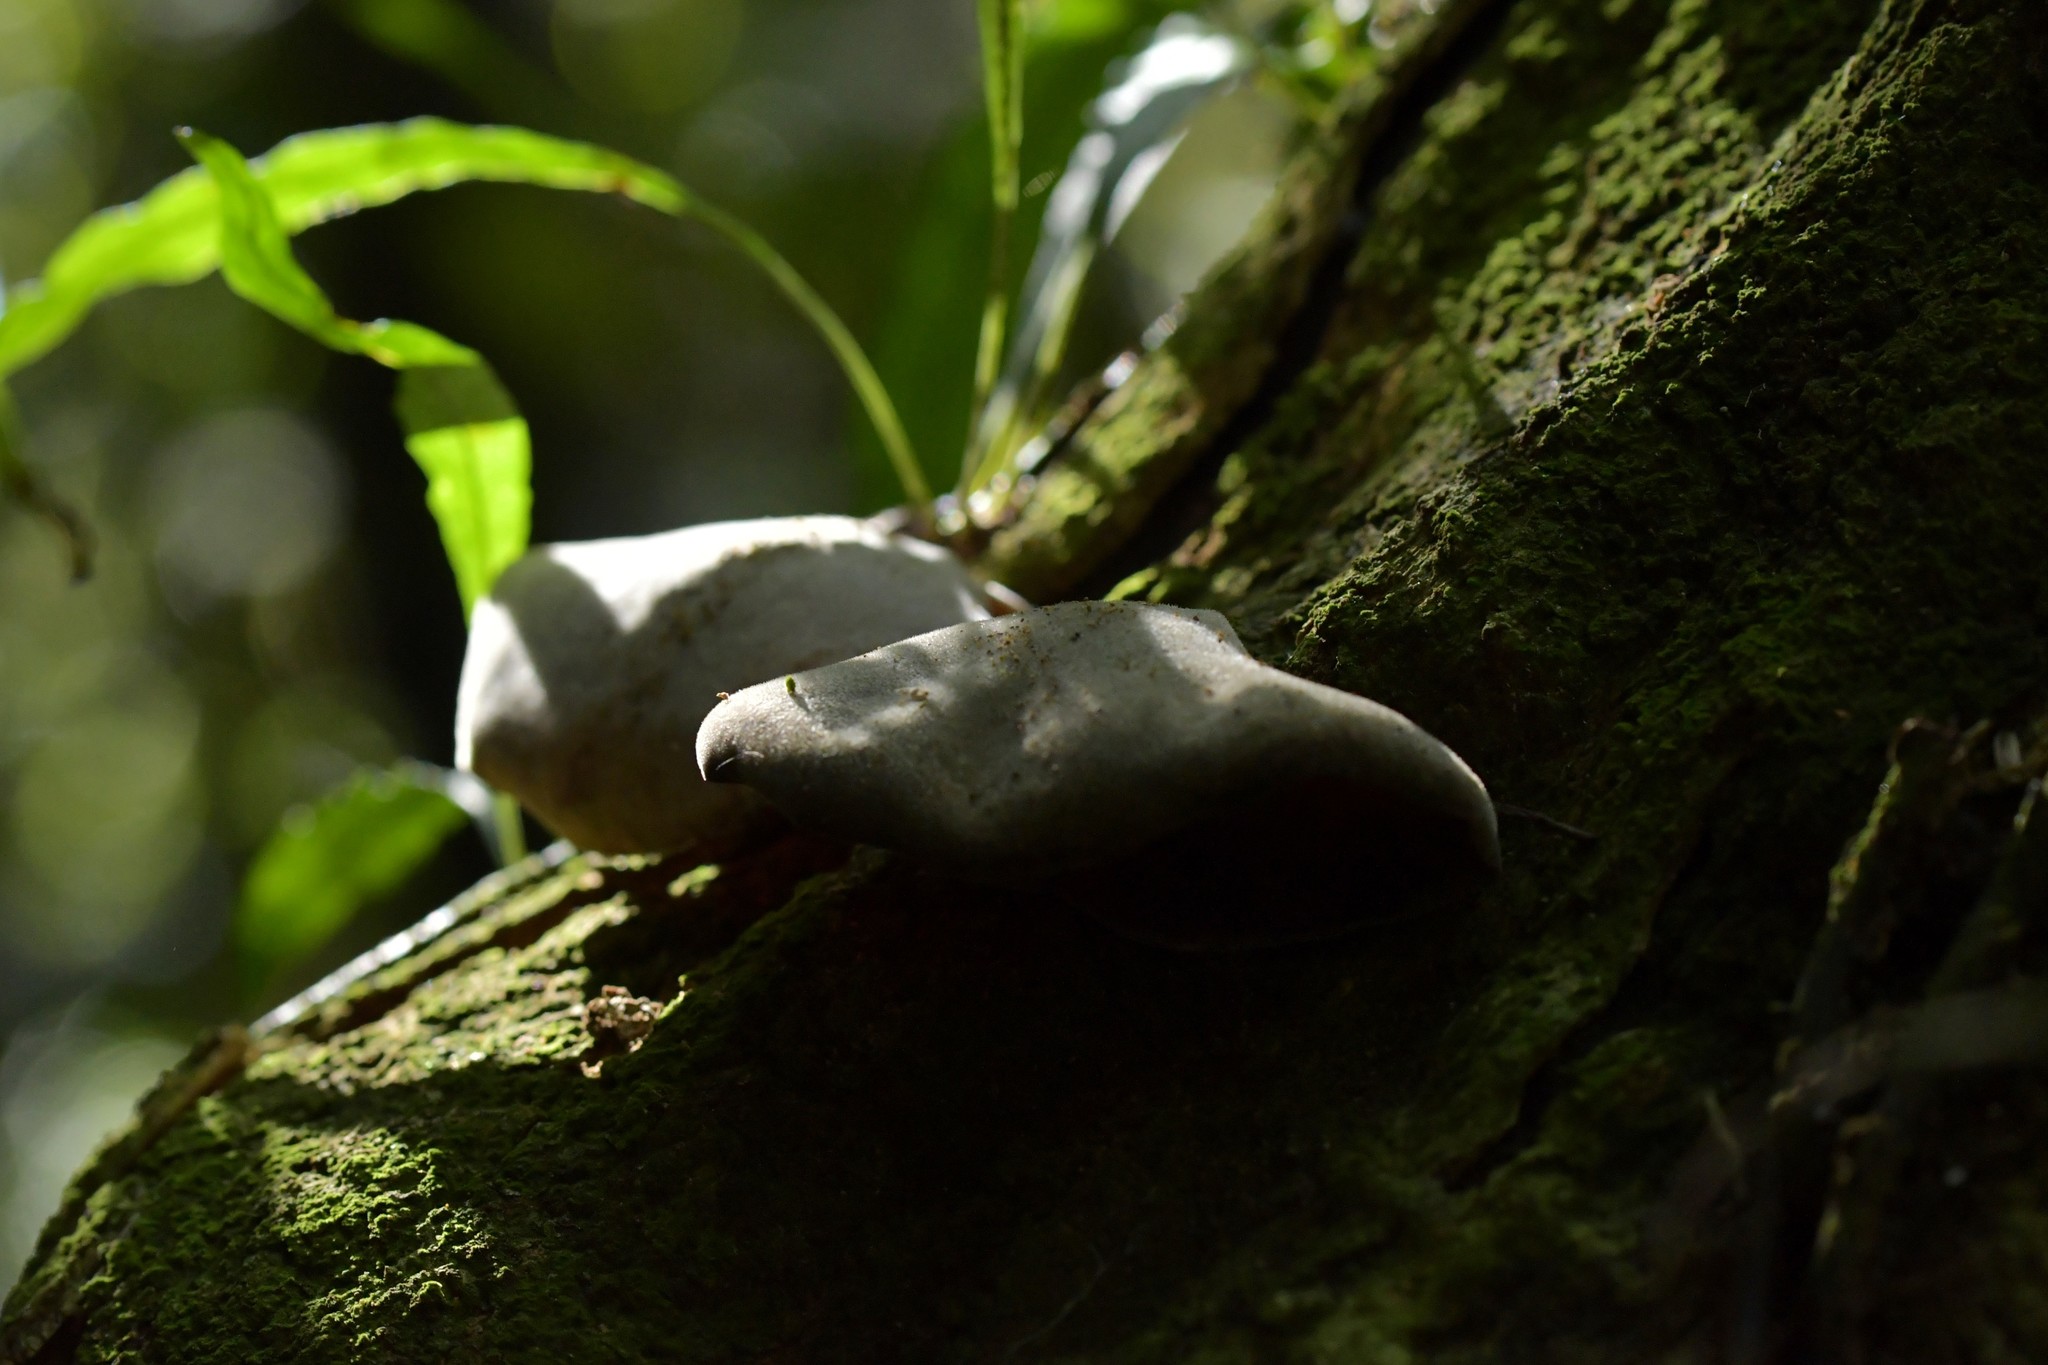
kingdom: Fungi
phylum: Basidiomycota
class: Agaricomycetes
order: Auriculariales
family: Auriculariaceae
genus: Auricularia
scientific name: Auricularia cornea
